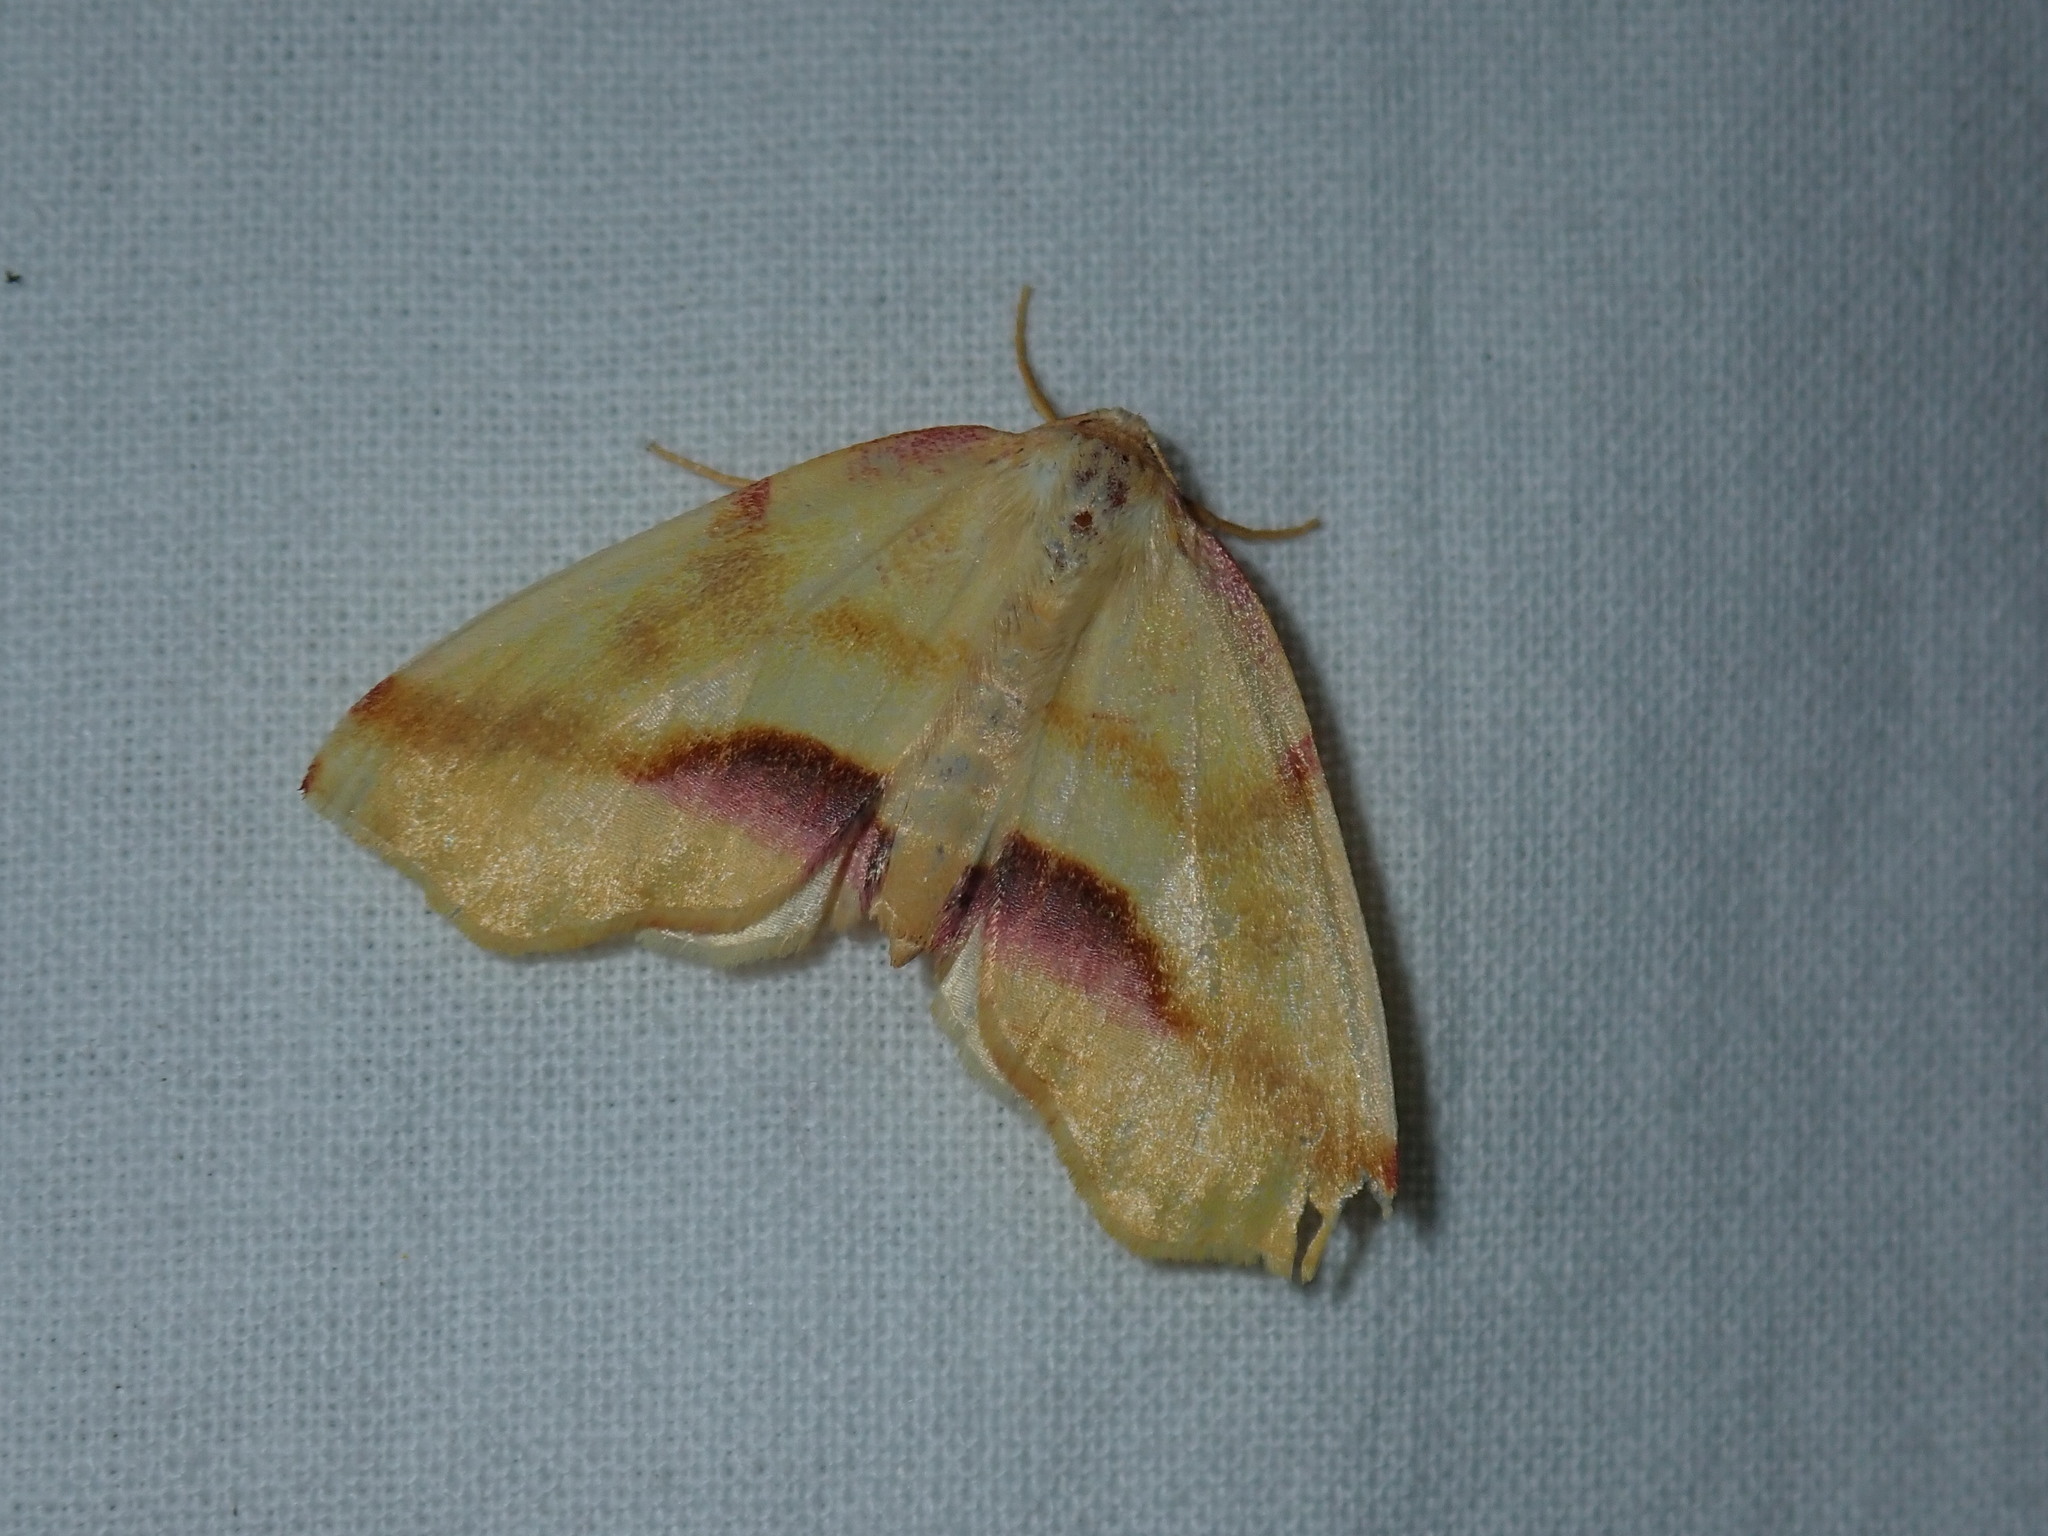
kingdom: Animalia
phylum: Arthropoda
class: Insecta
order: Lepidoptera
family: Geometridae
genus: Plagodis
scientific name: Plagodis serinaria
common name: Lemon plagodis
